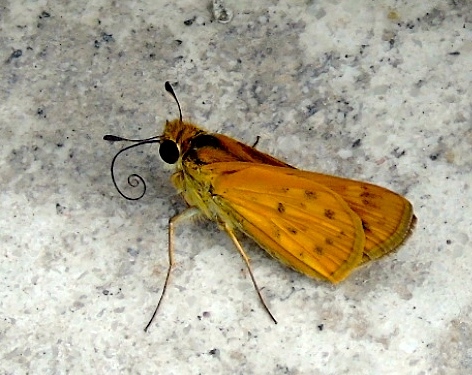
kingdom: Animalia
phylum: Arthropoda
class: Insecta
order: Lepidoptera
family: Hesperiidae
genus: Hylephila
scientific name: Hylephila phyleus
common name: Fiery skipper
